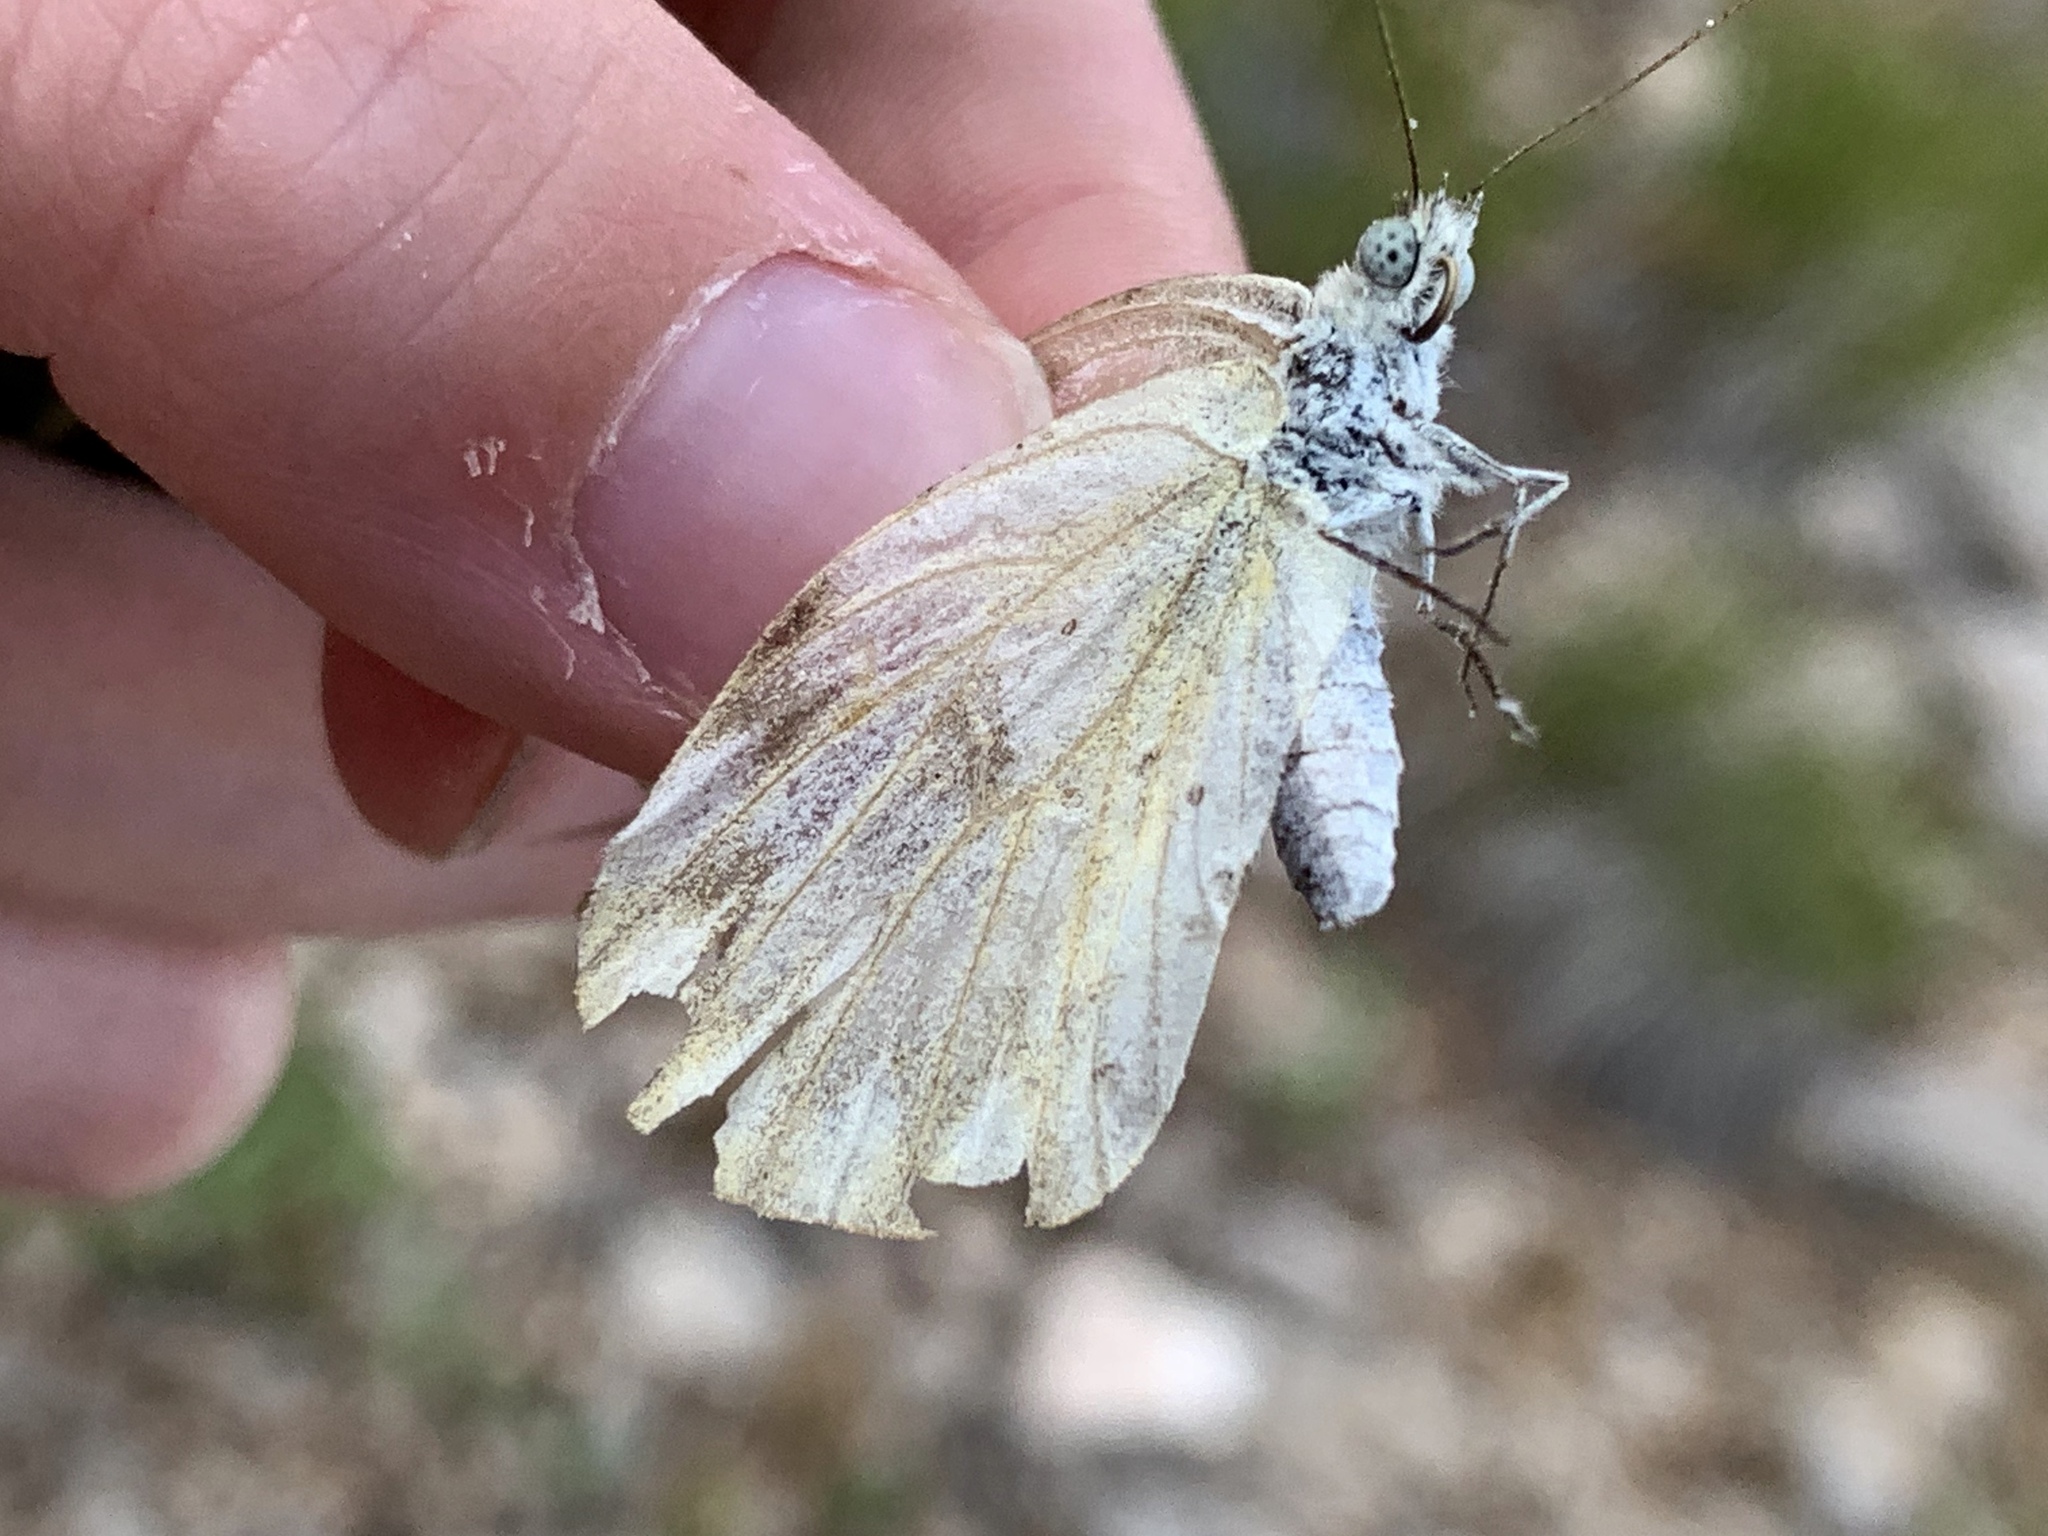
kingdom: Animalia
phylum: Arthropoda
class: Insecta
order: Lepidoptera
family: Pieridae
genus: Pontia
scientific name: Pontia protodice
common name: Checkered white
